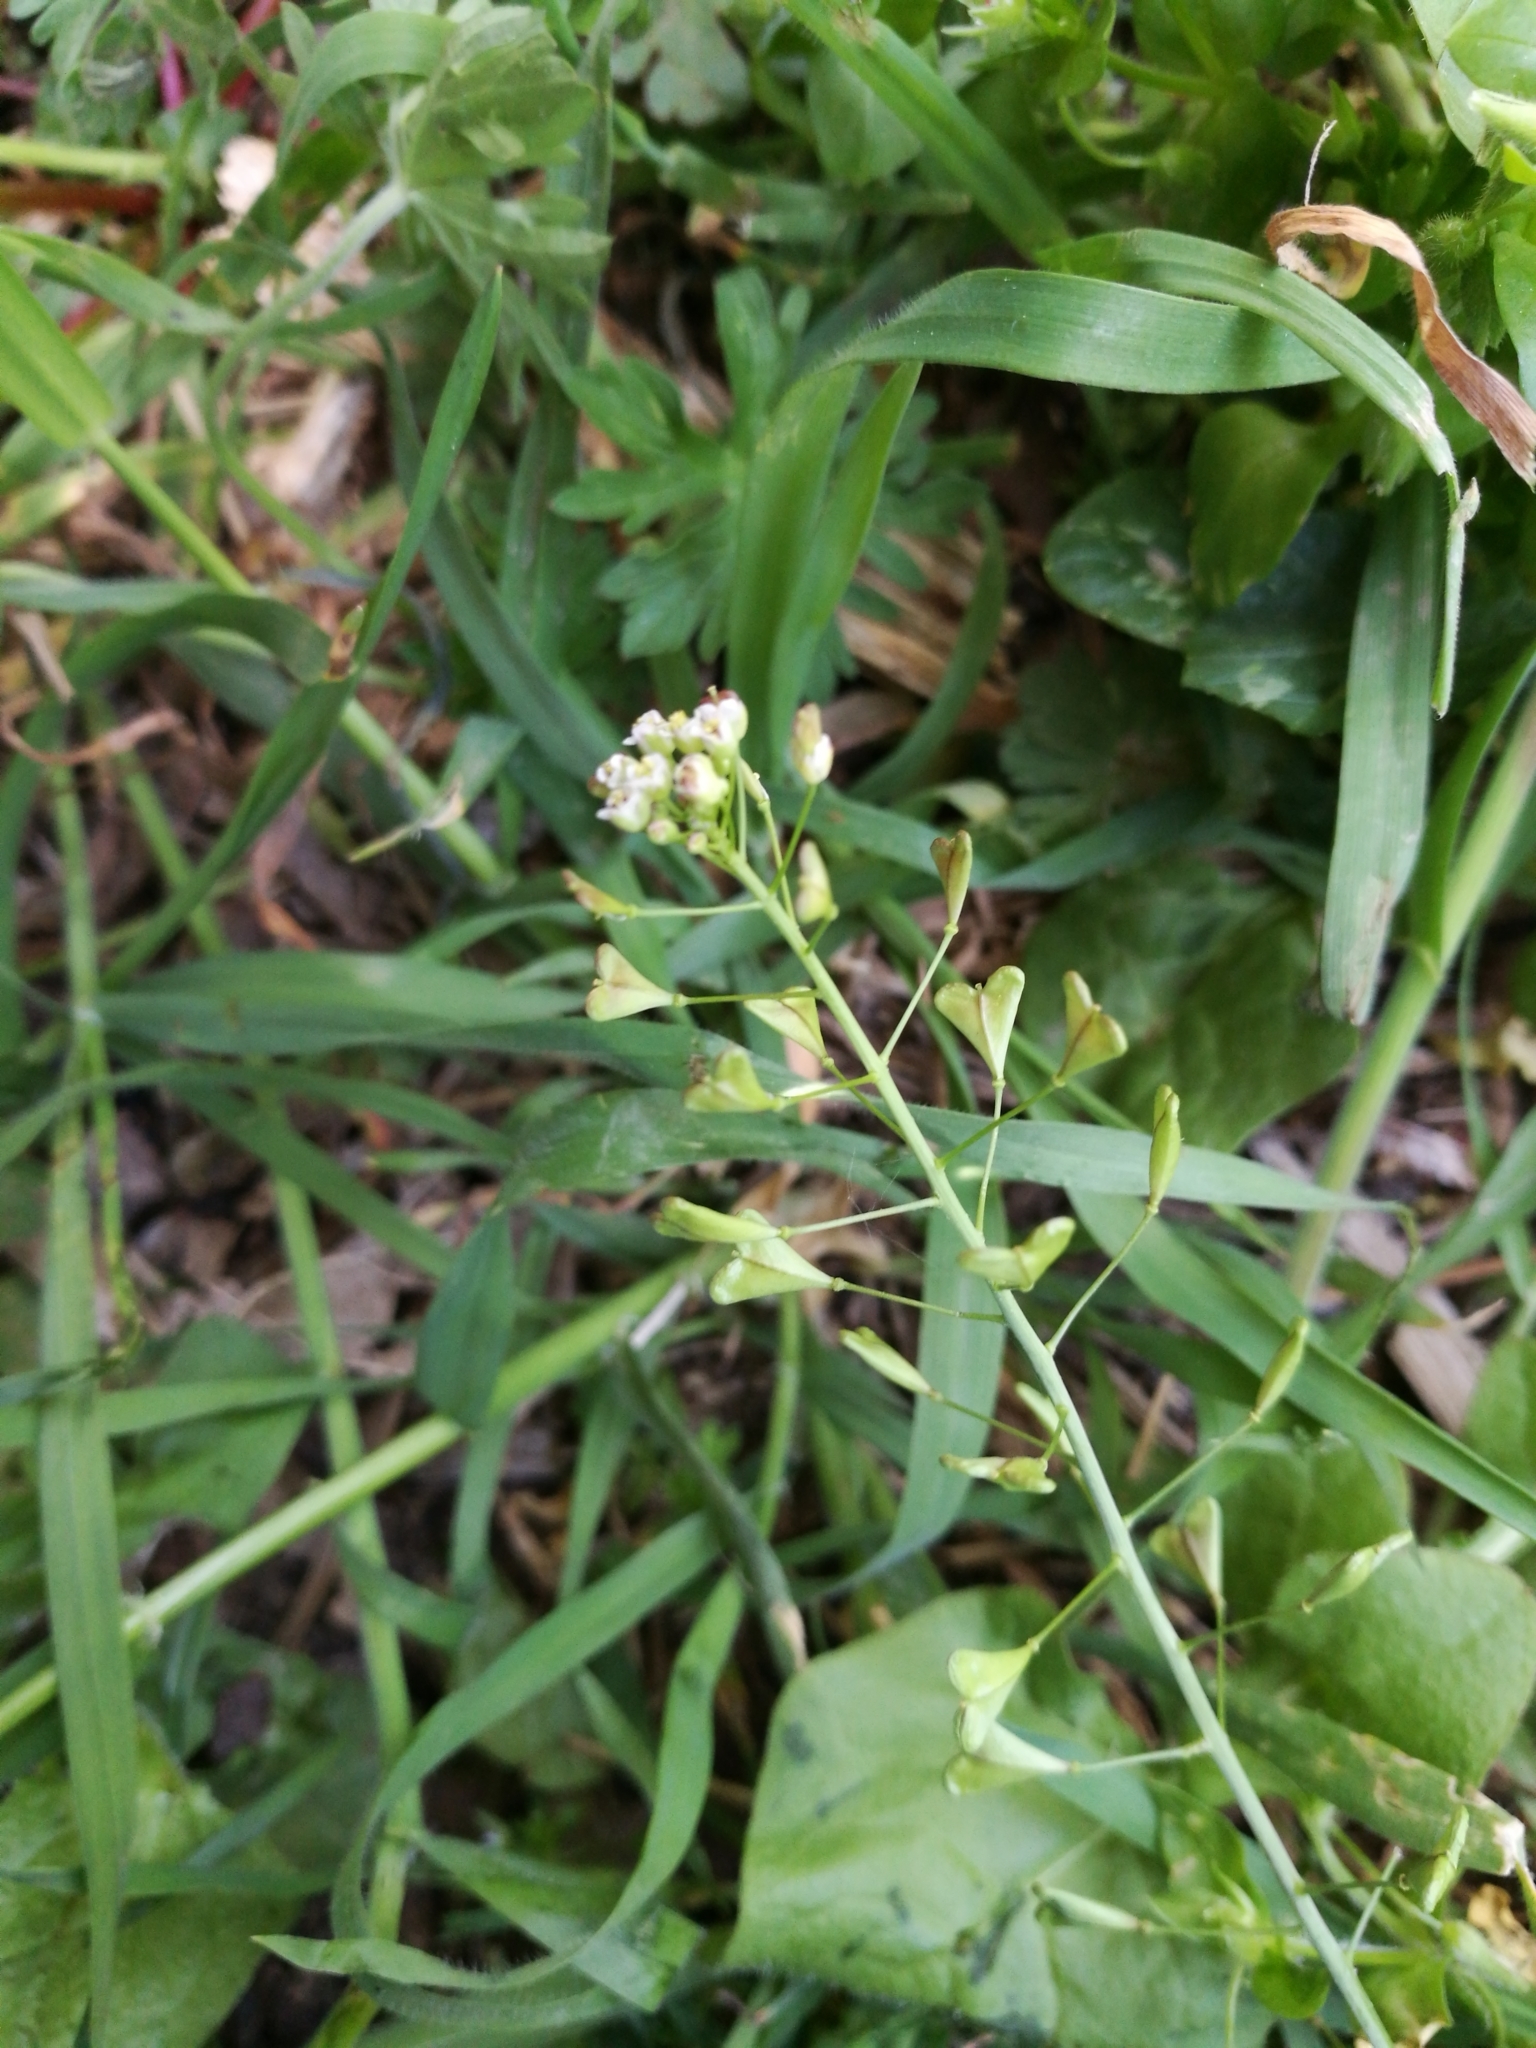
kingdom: Plantae
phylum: Tracheophyta
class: Magnoliopsida
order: Brassicales
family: Brassicaceae
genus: Capsella
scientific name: Capsella bursa-pastoris
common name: Shepherd's purse
